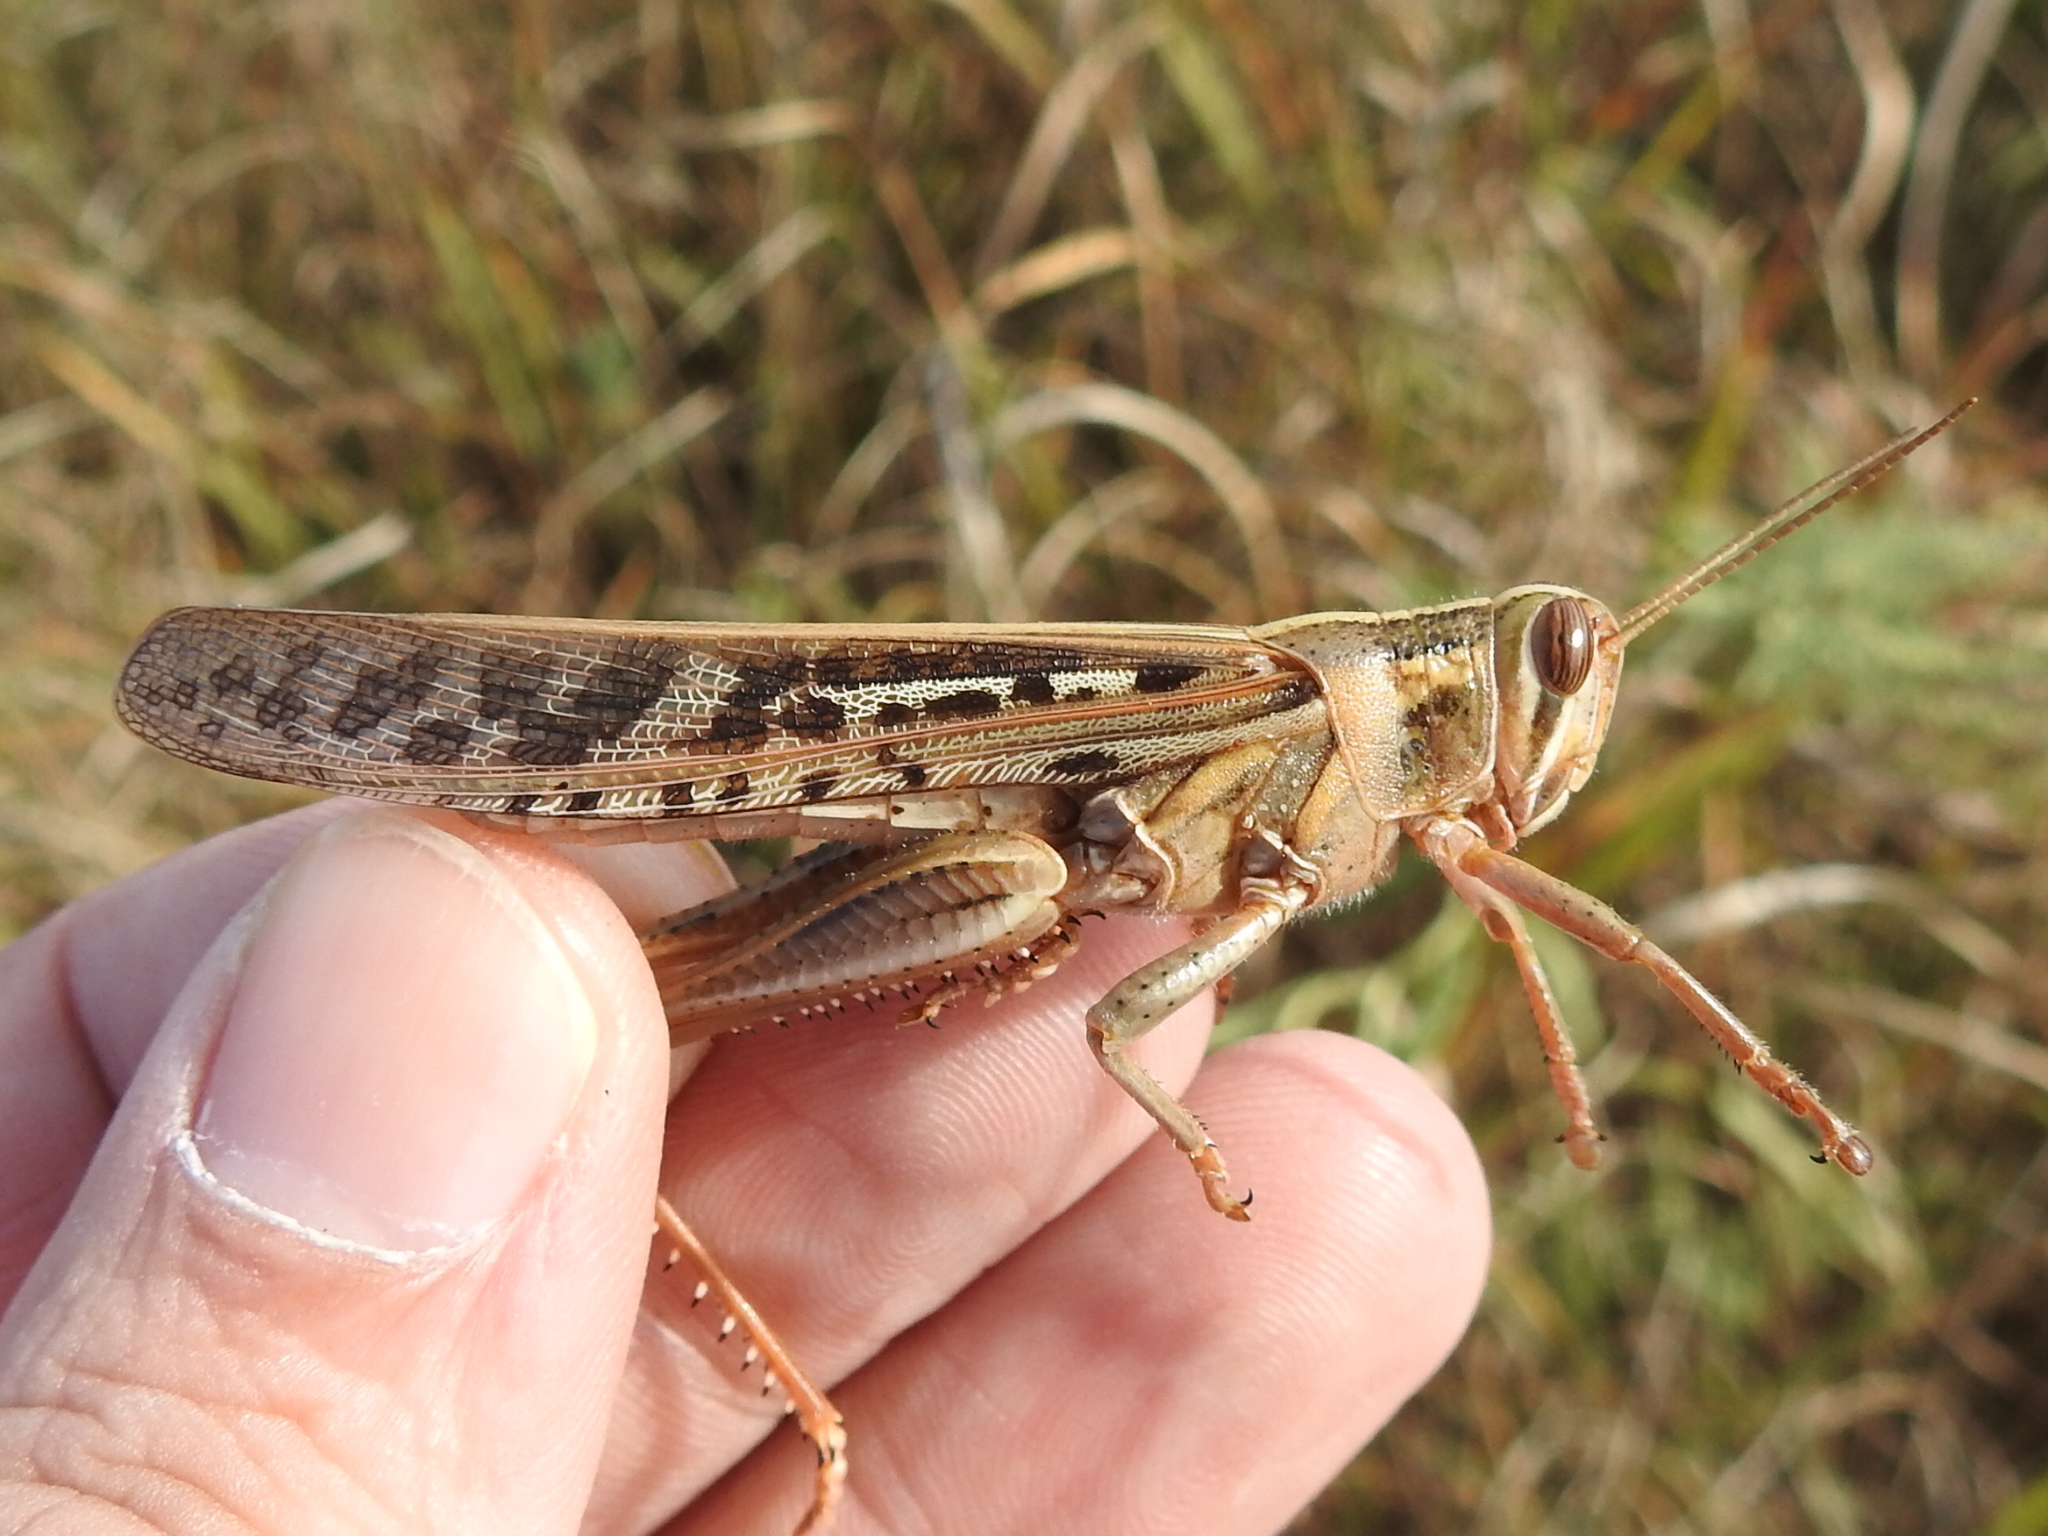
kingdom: Animalia
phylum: Arthropoda
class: Insecta
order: Orthoptera
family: Acrididae
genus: Schistocerca
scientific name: Schistocerca americana
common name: American bird locust
